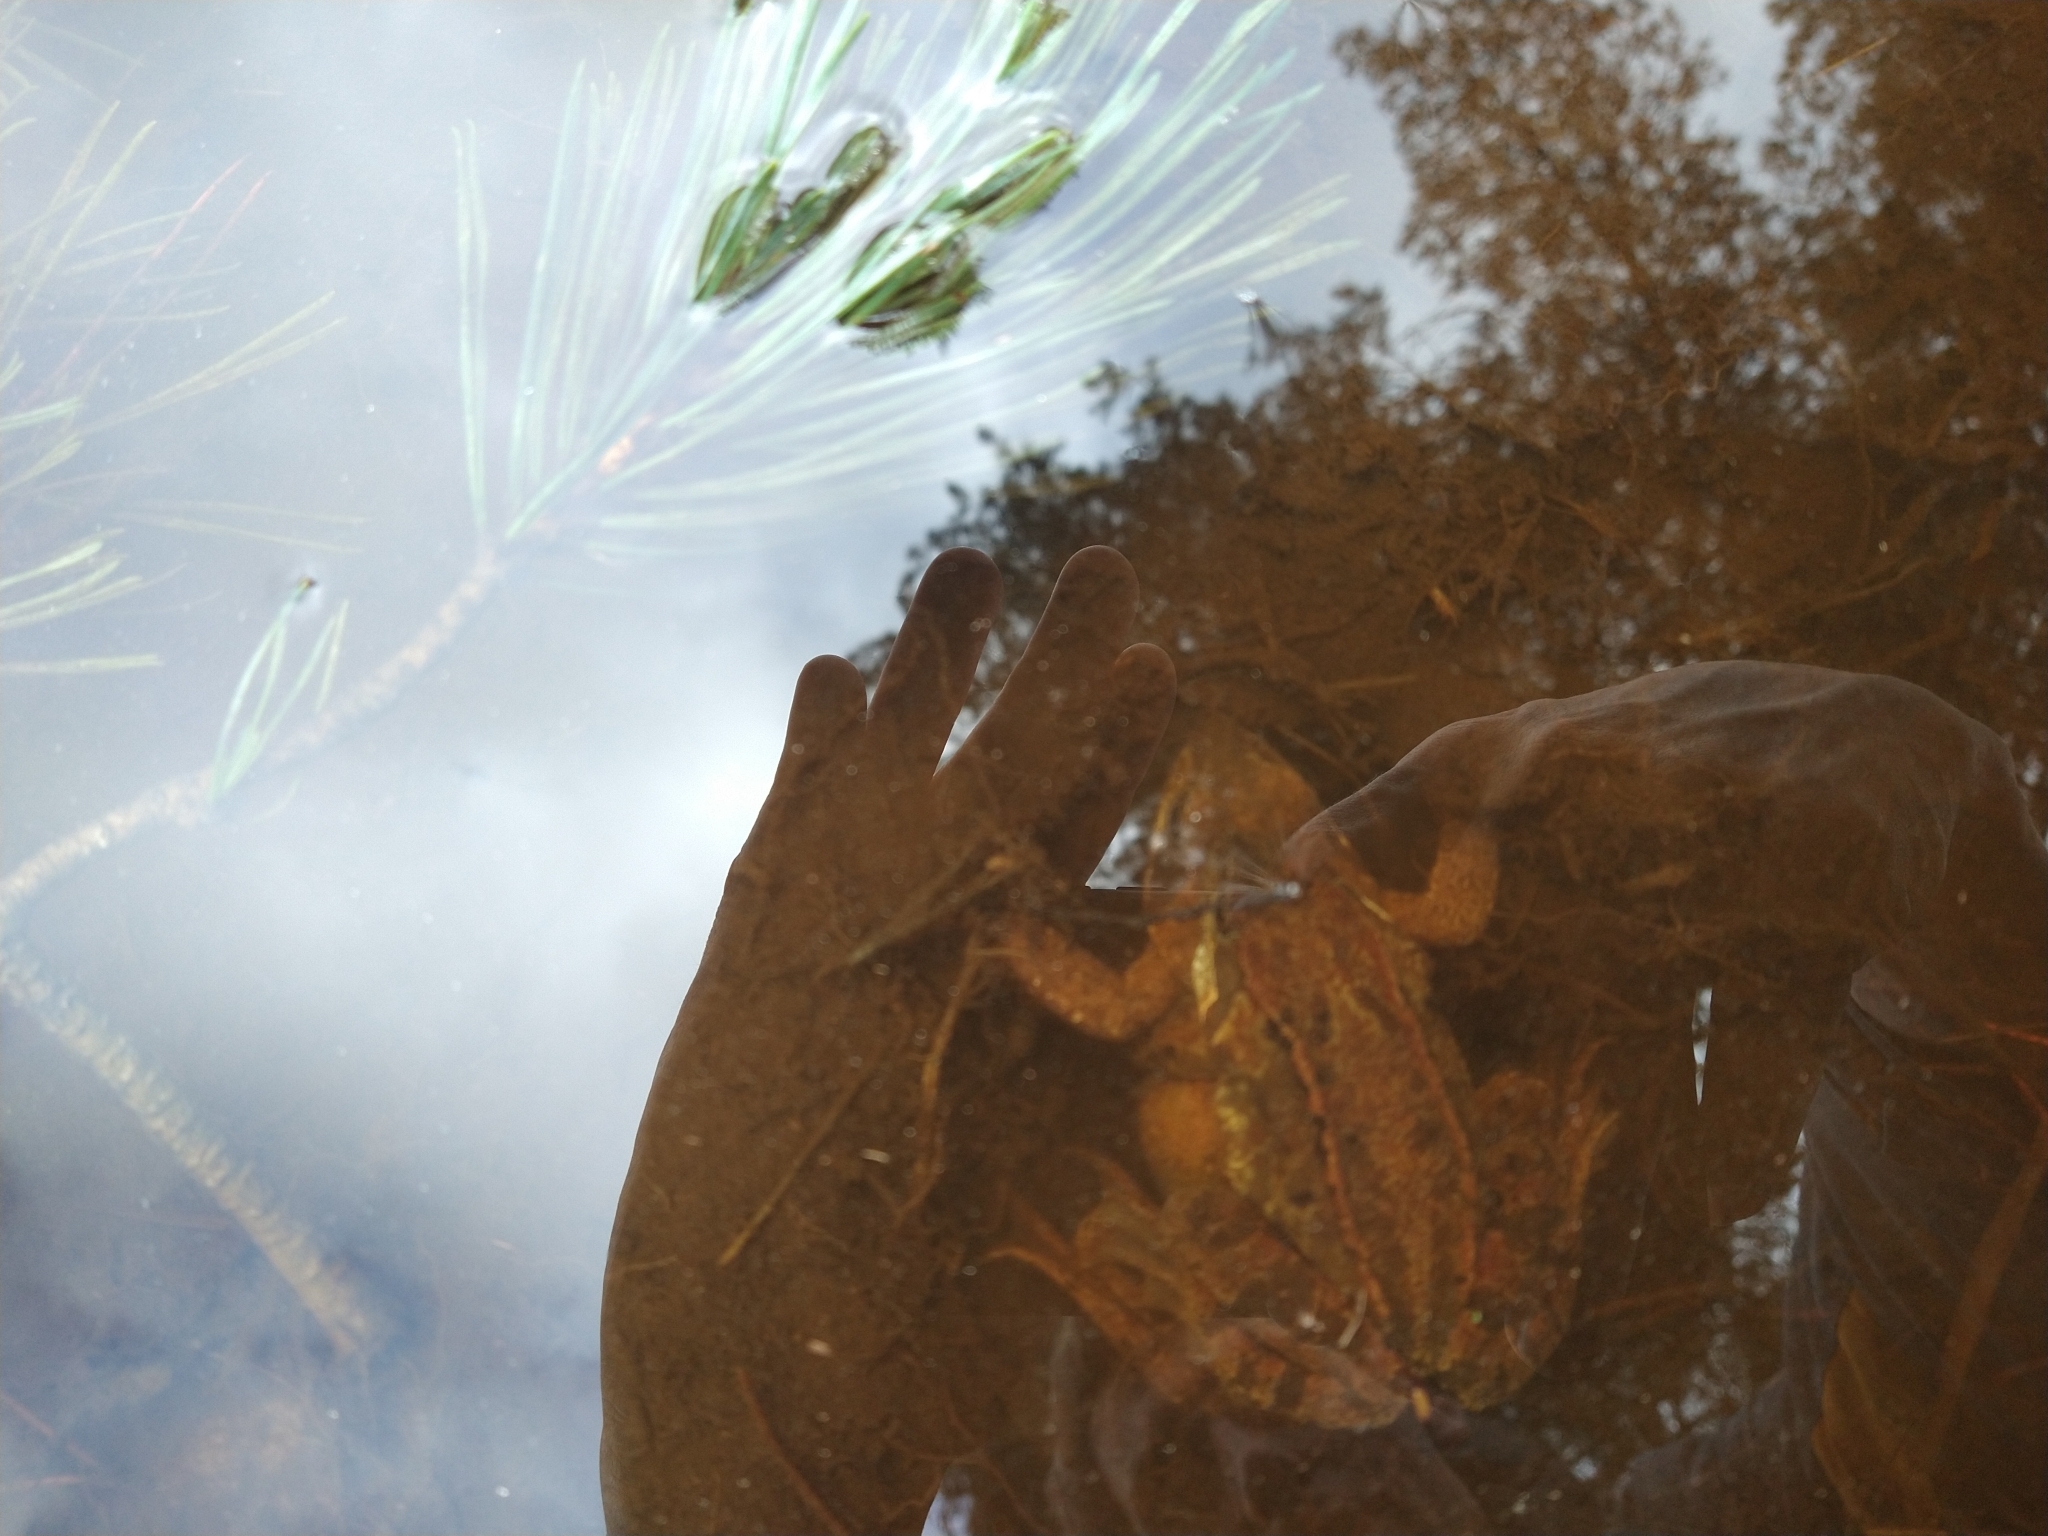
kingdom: Animalia
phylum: Chordata
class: Amphibia
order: Anura
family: Ranidae
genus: Rana
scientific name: Rana temporaria
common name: Common frog
